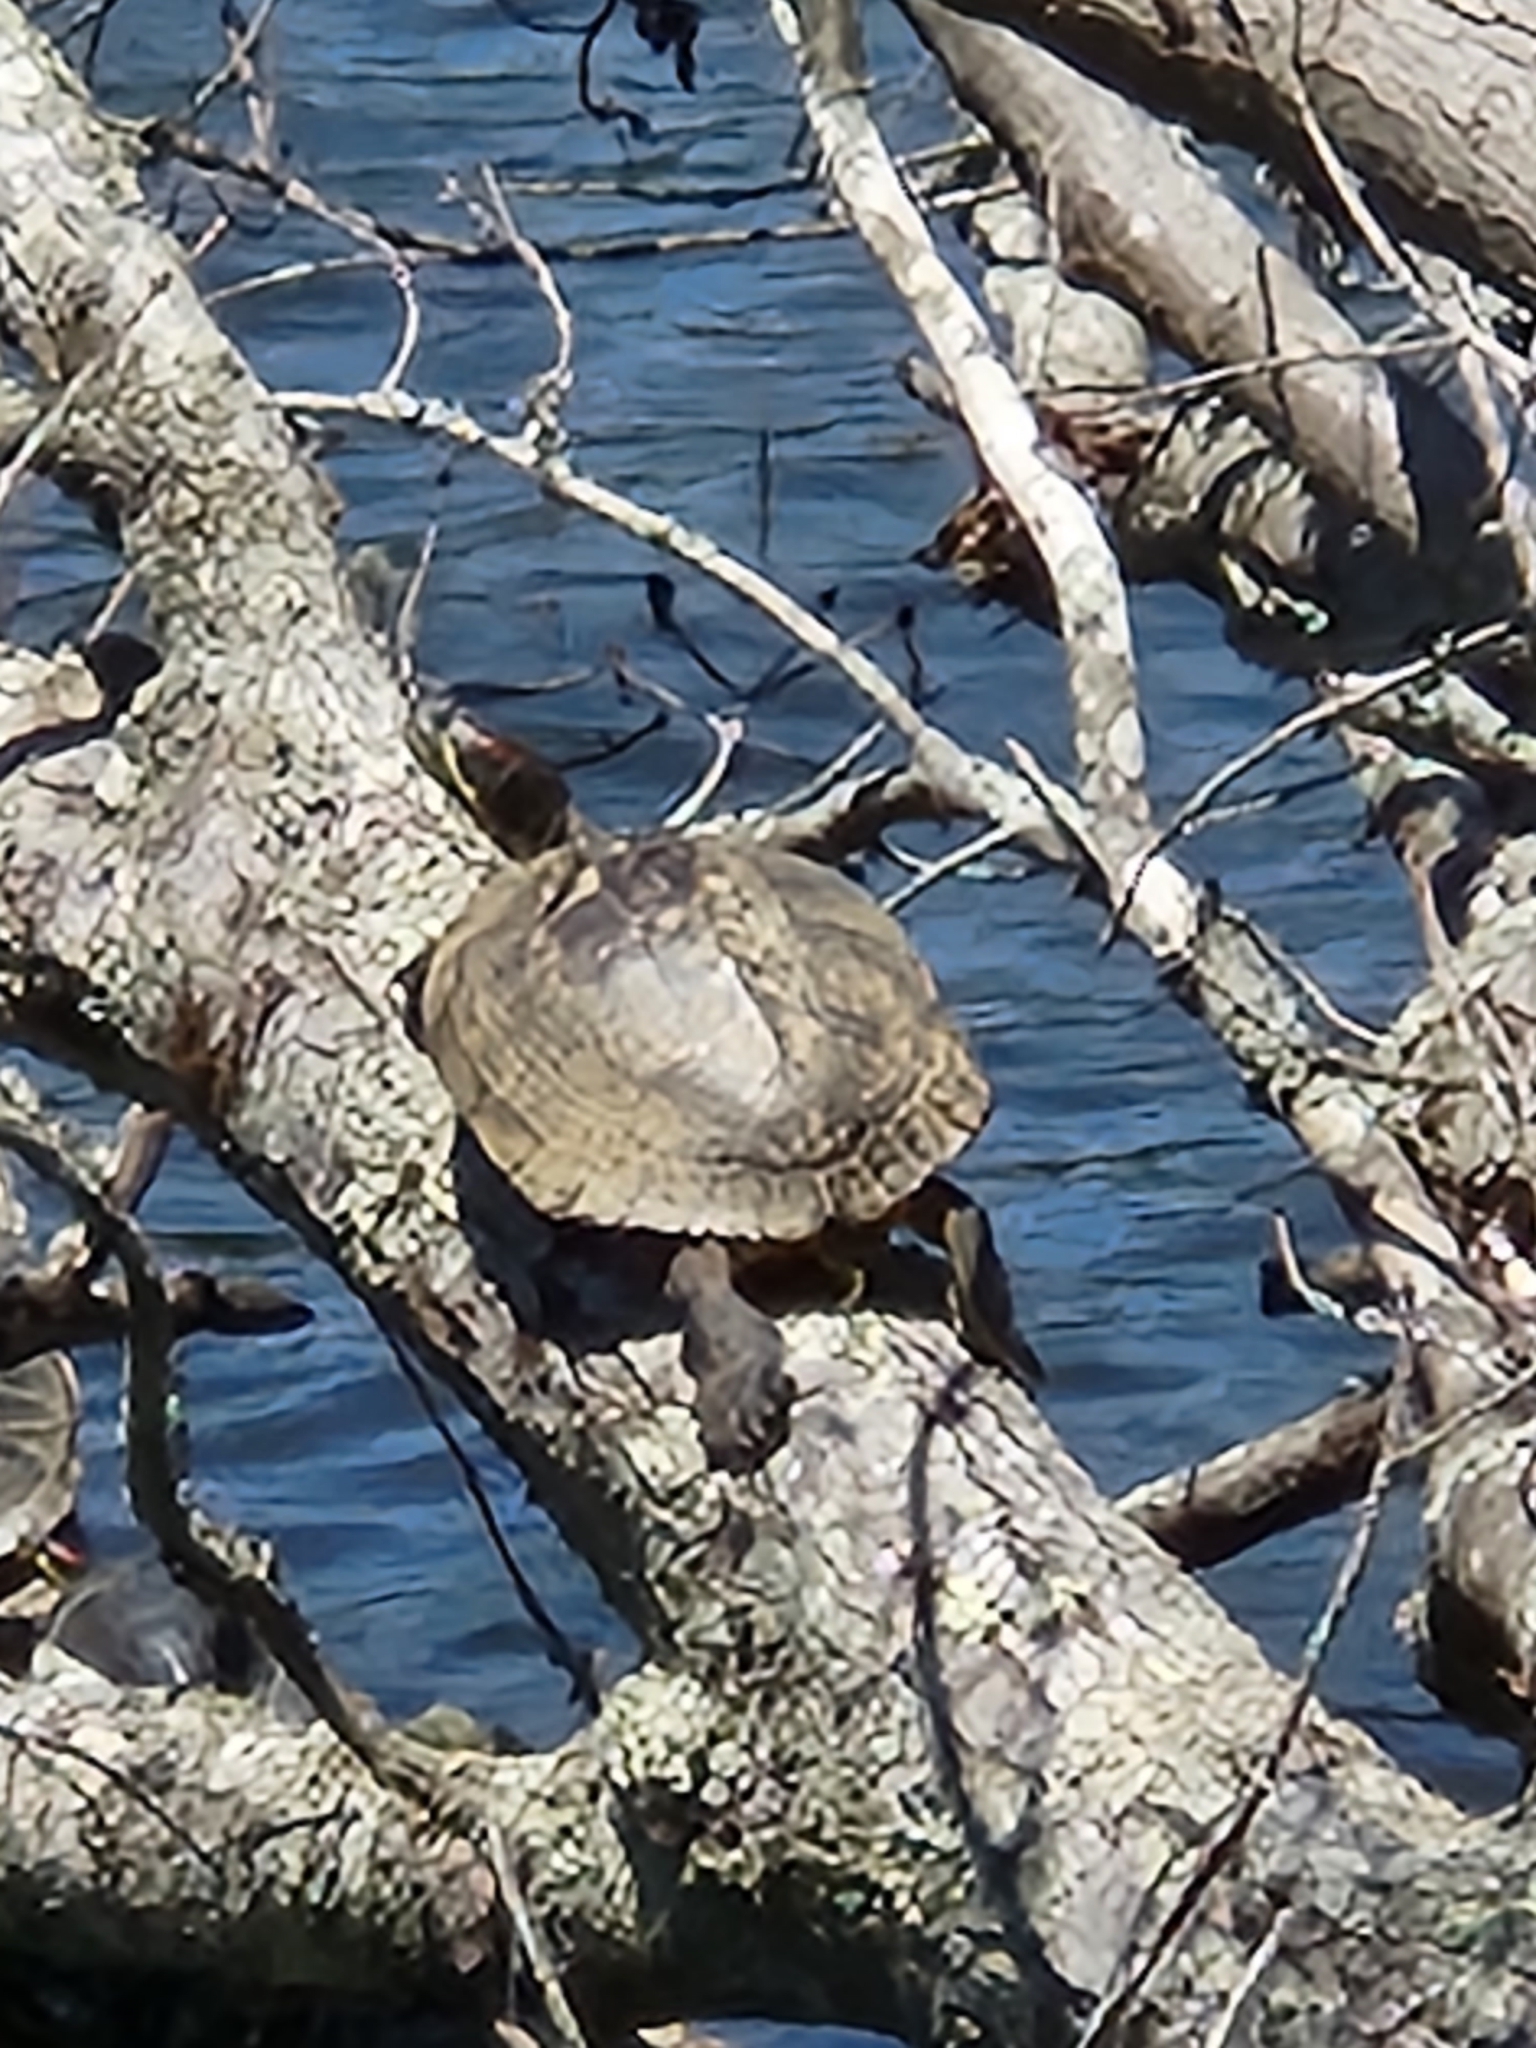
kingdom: Animalia
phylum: Chordata
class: Testudines
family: Emydidae
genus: Trachemys
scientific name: Trachemys scripta
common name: Slider
